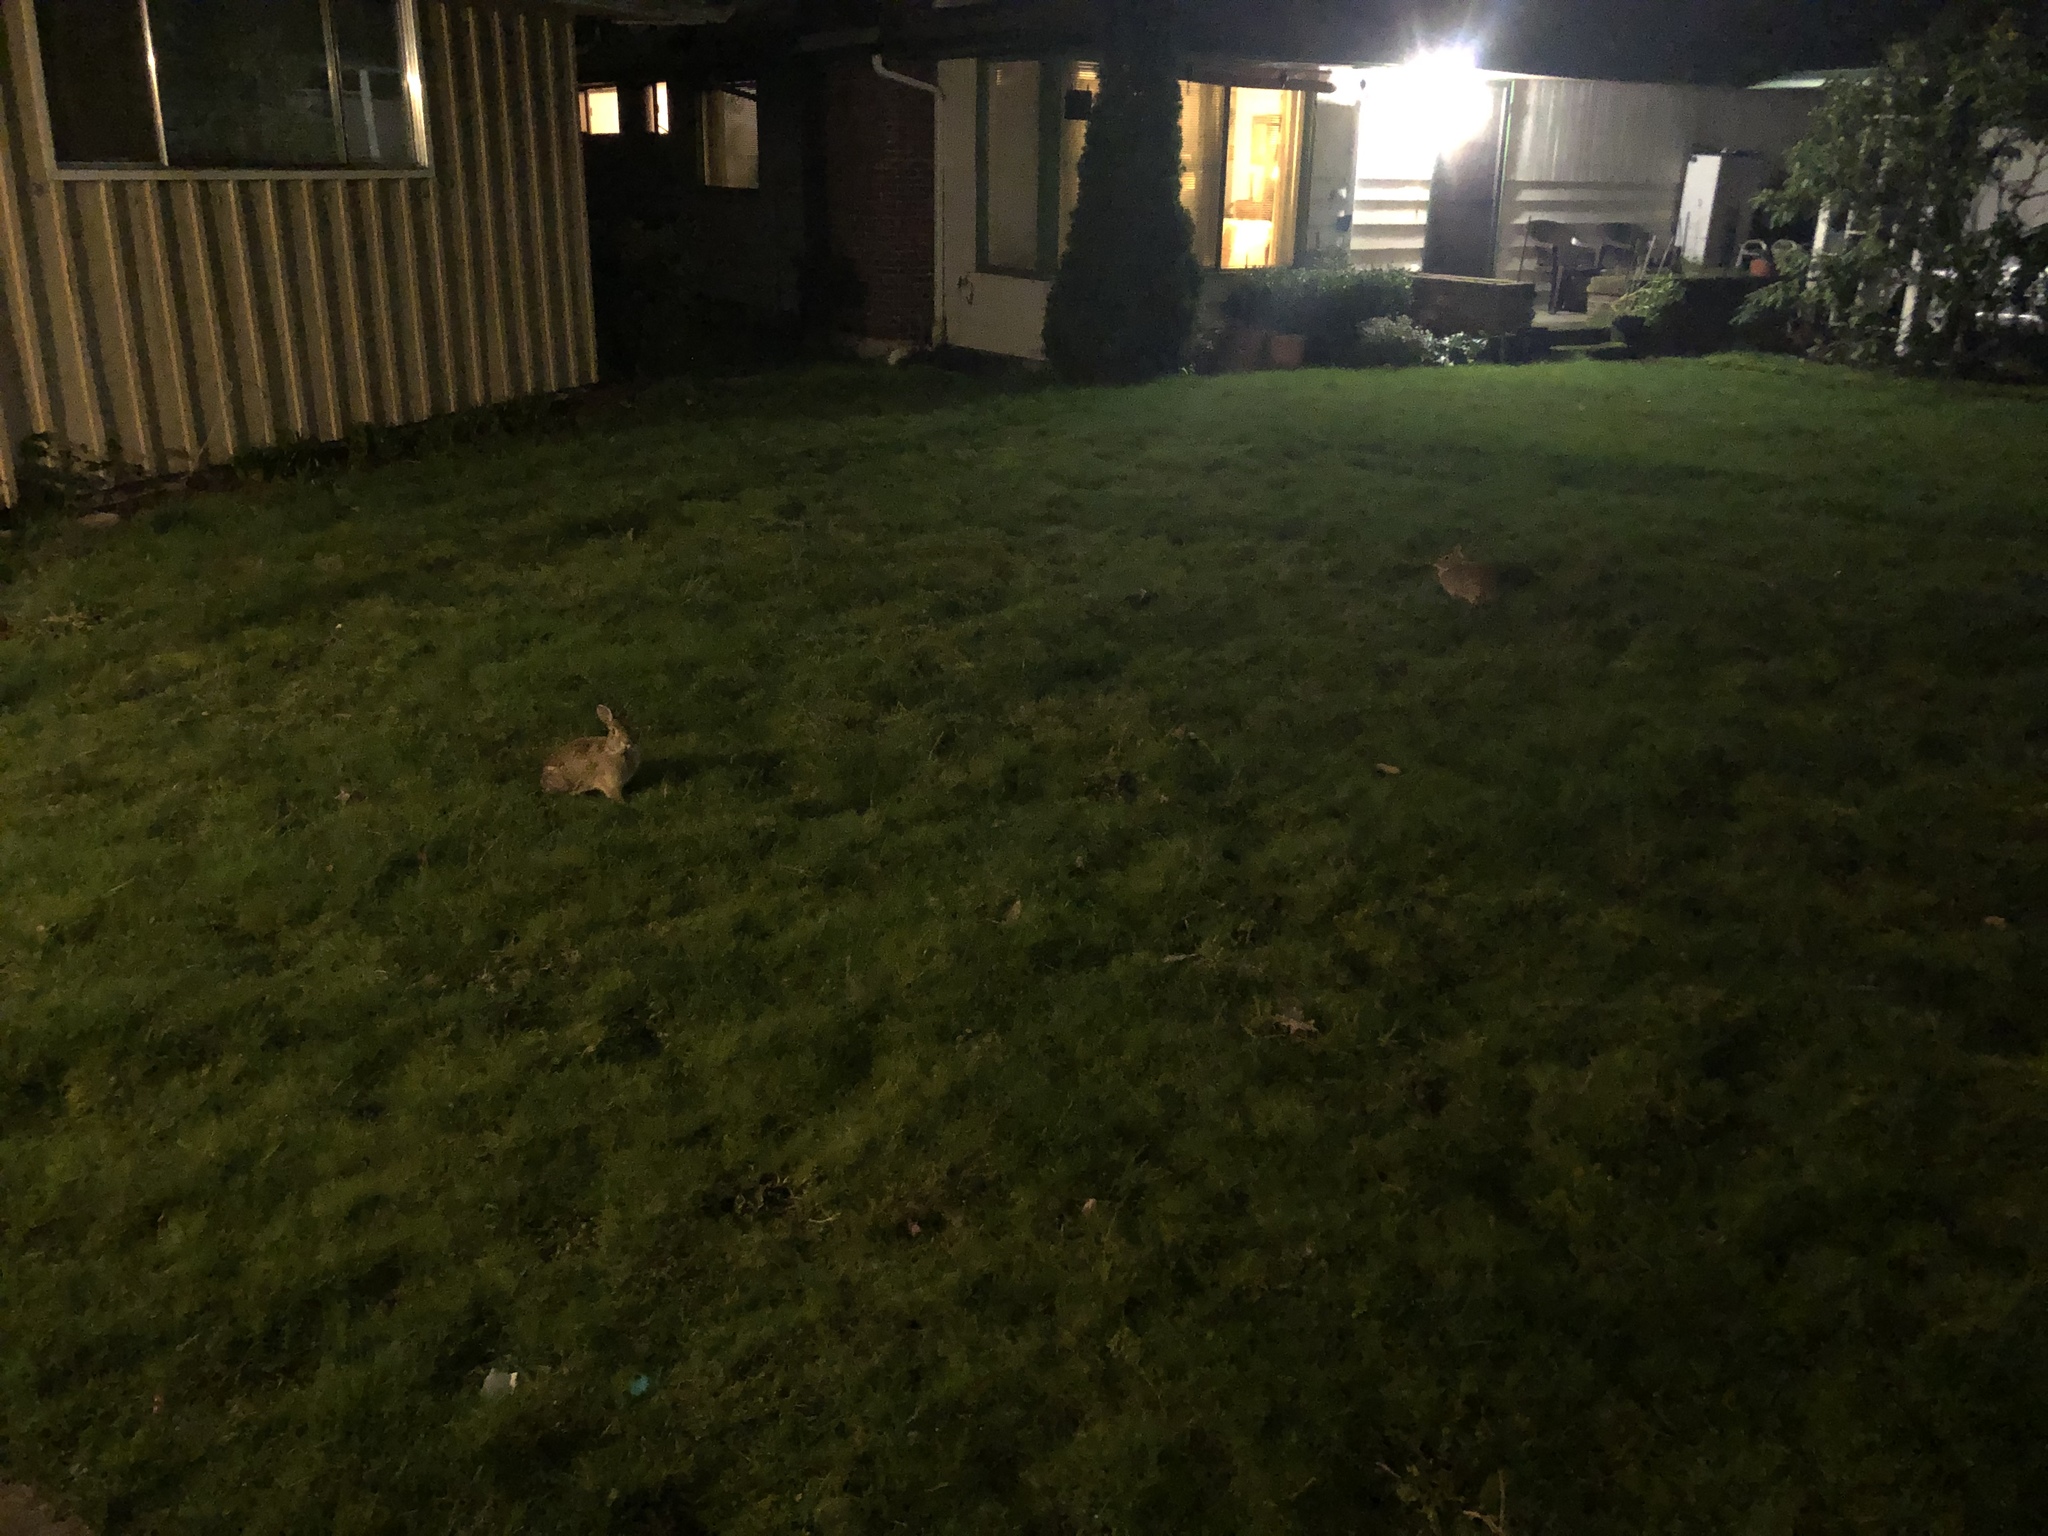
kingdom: Animalia
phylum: Chordata
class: Mammalia
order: Lagomorpha
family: Leporidae
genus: Sylvilagus
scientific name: Sylvilagus floridanus
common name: Eastern cottontail
